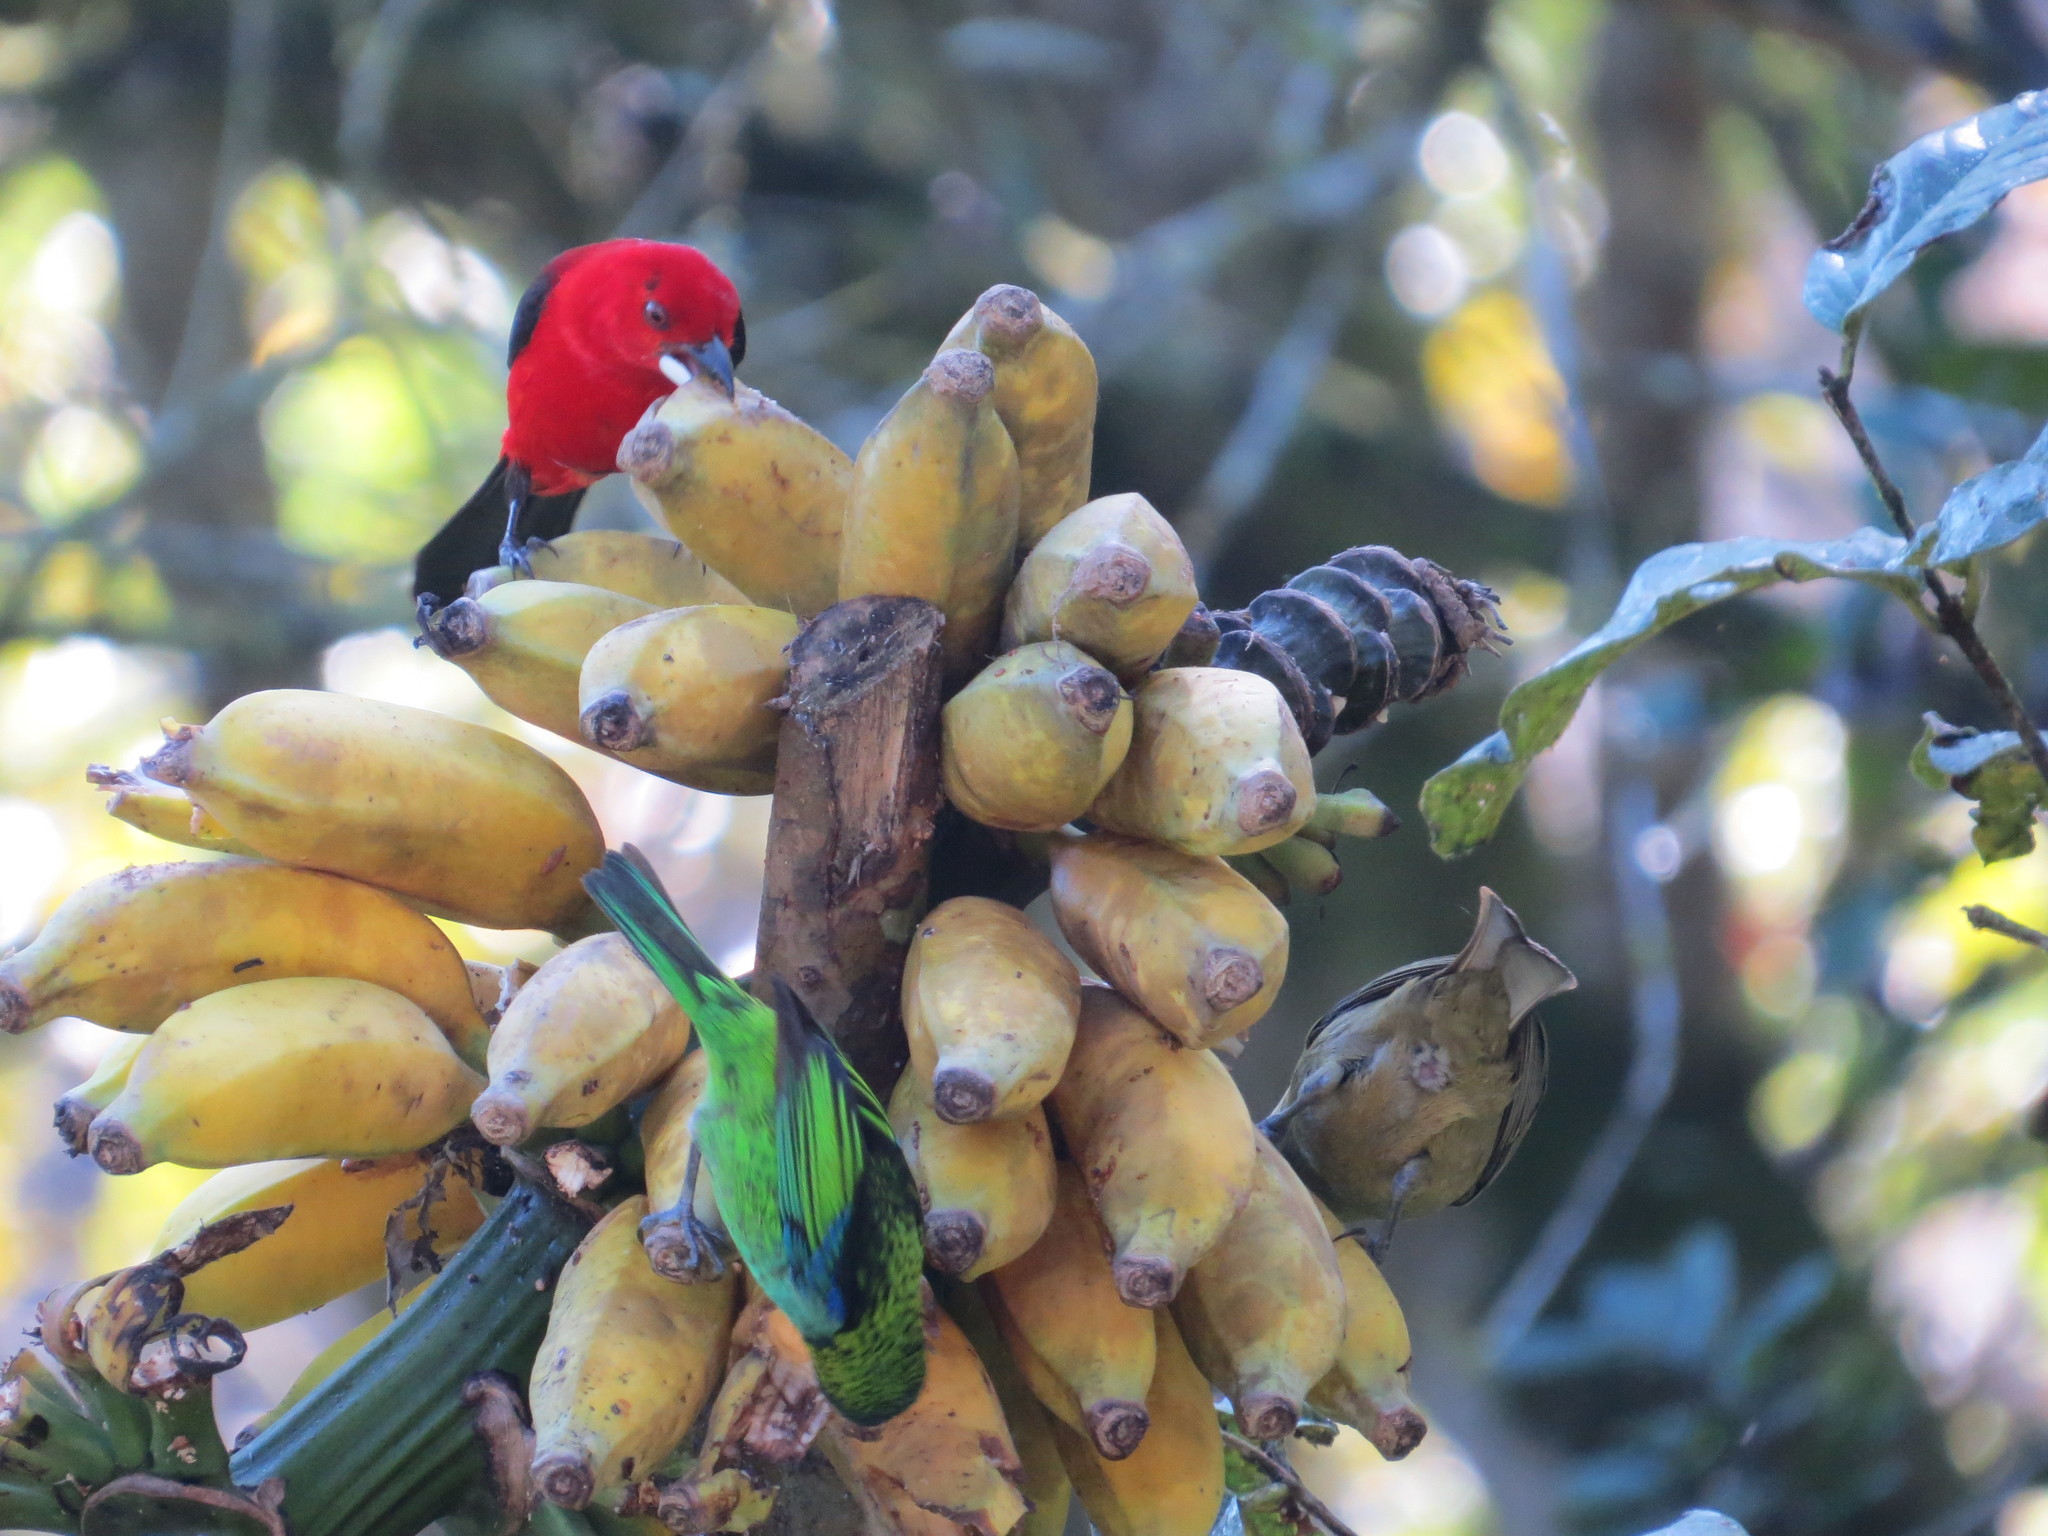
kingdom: Animalia
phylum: Chordata
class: Aves
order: Passeriformes
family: Thraupidae
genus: Tangara
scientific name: Tangara seledon
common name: Green-headed tanager
